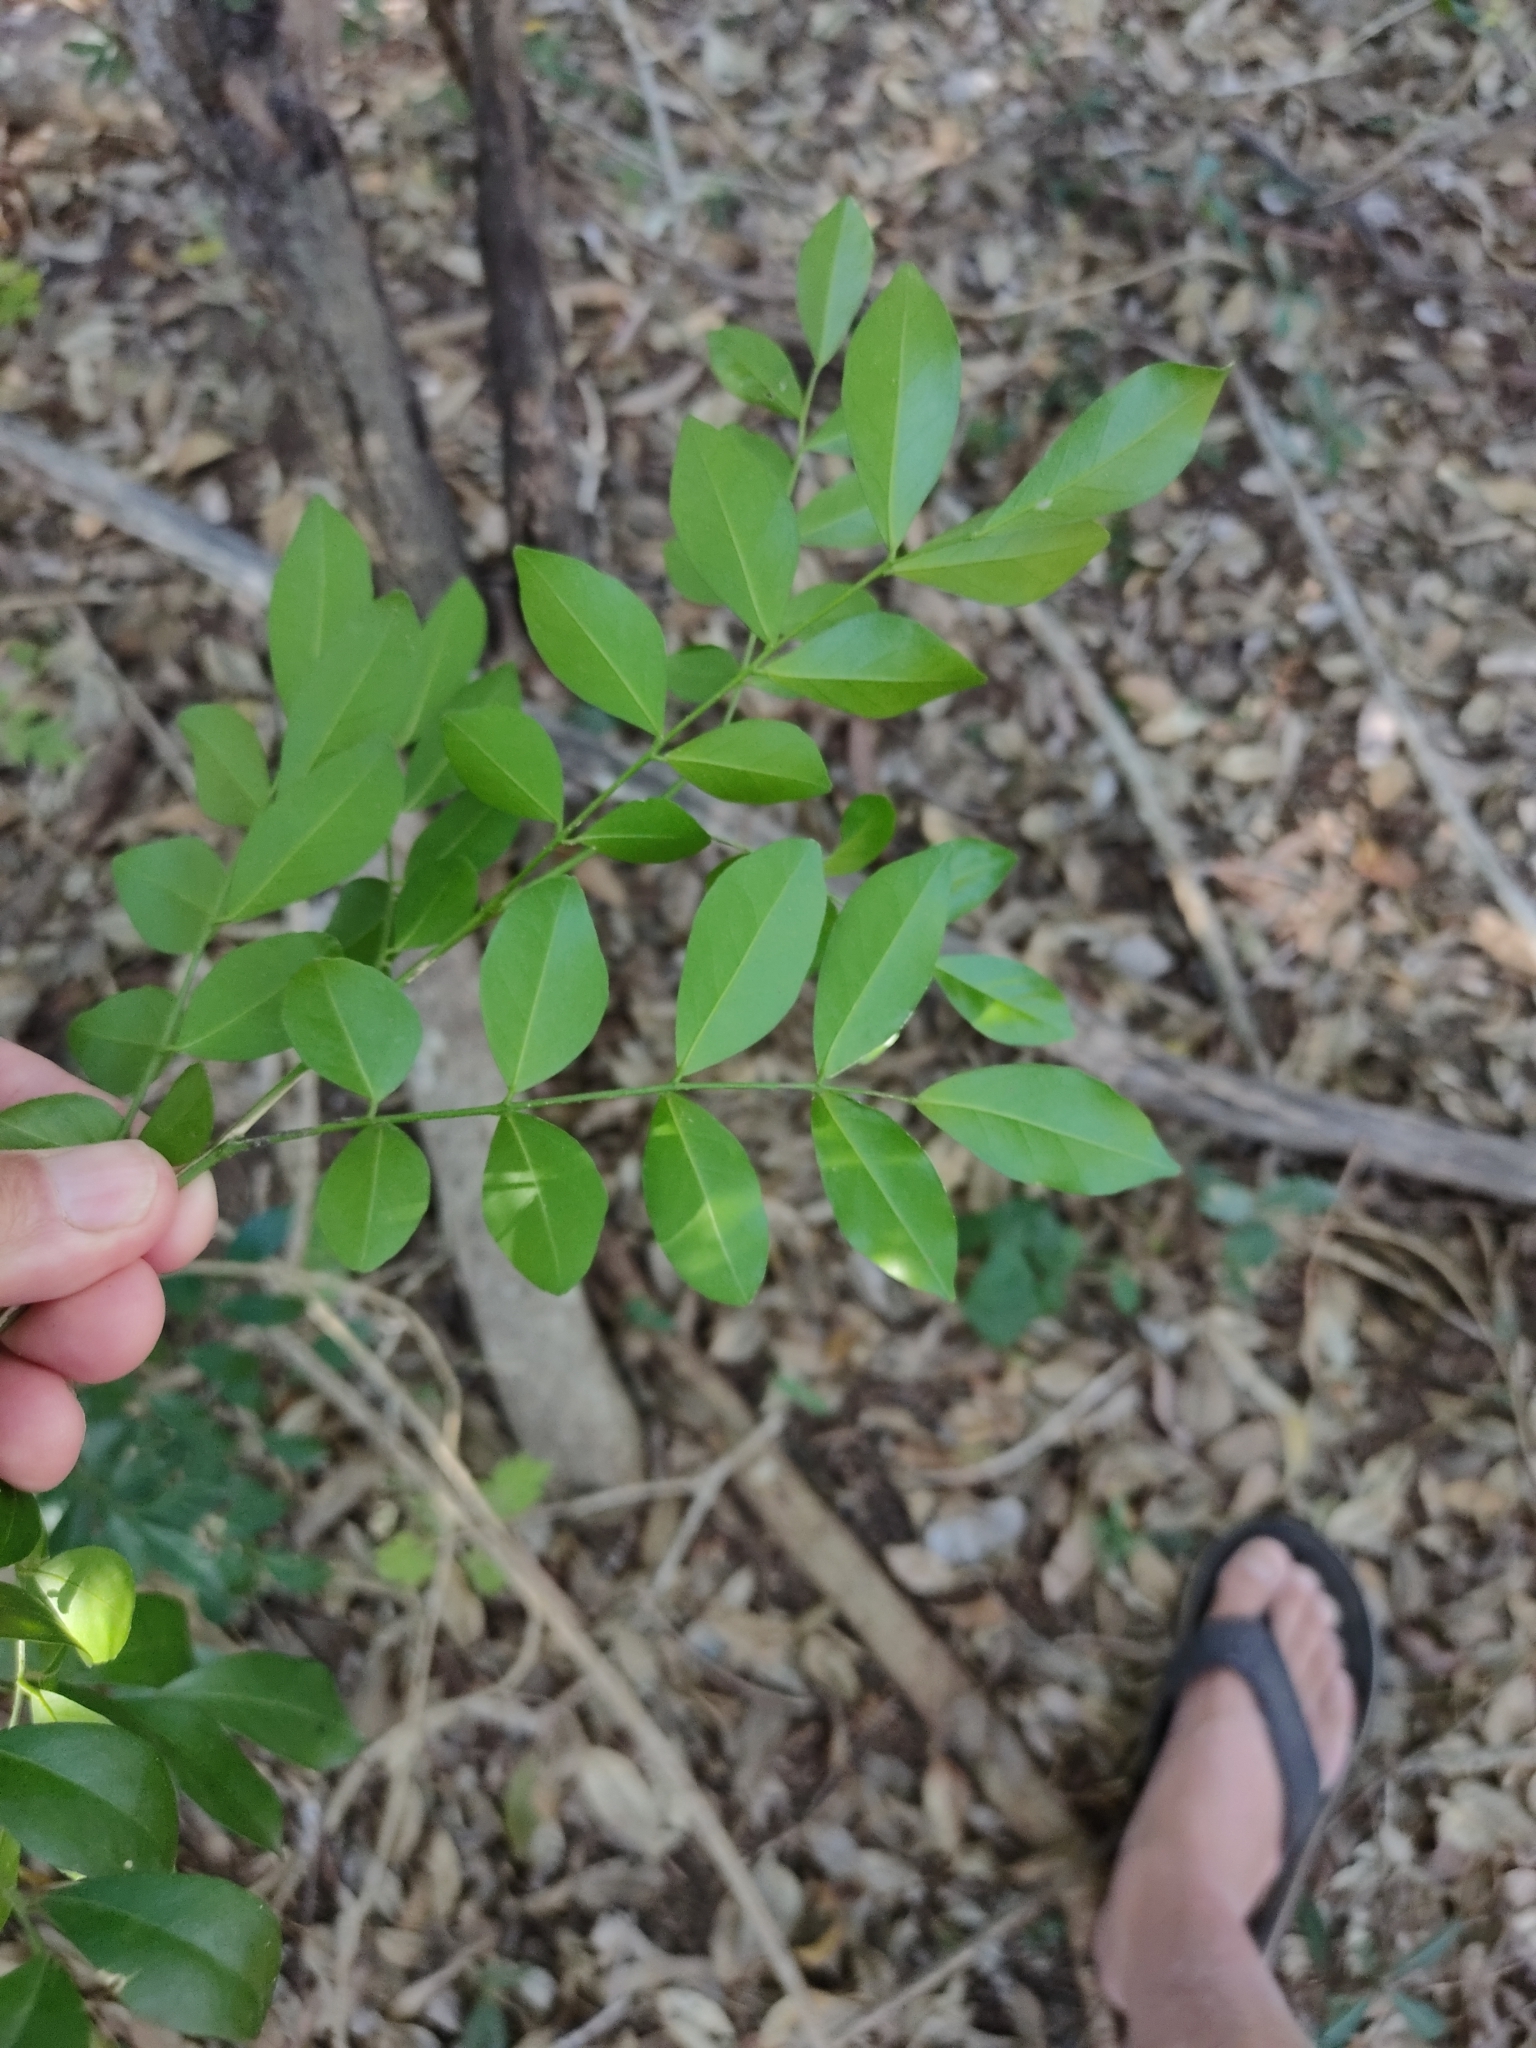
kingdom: Plantae
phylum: Tracheophyta
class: Magnoliopsida
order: Sapindales
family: Rutaceae
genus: Murraya
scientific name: Murraya paniculata
